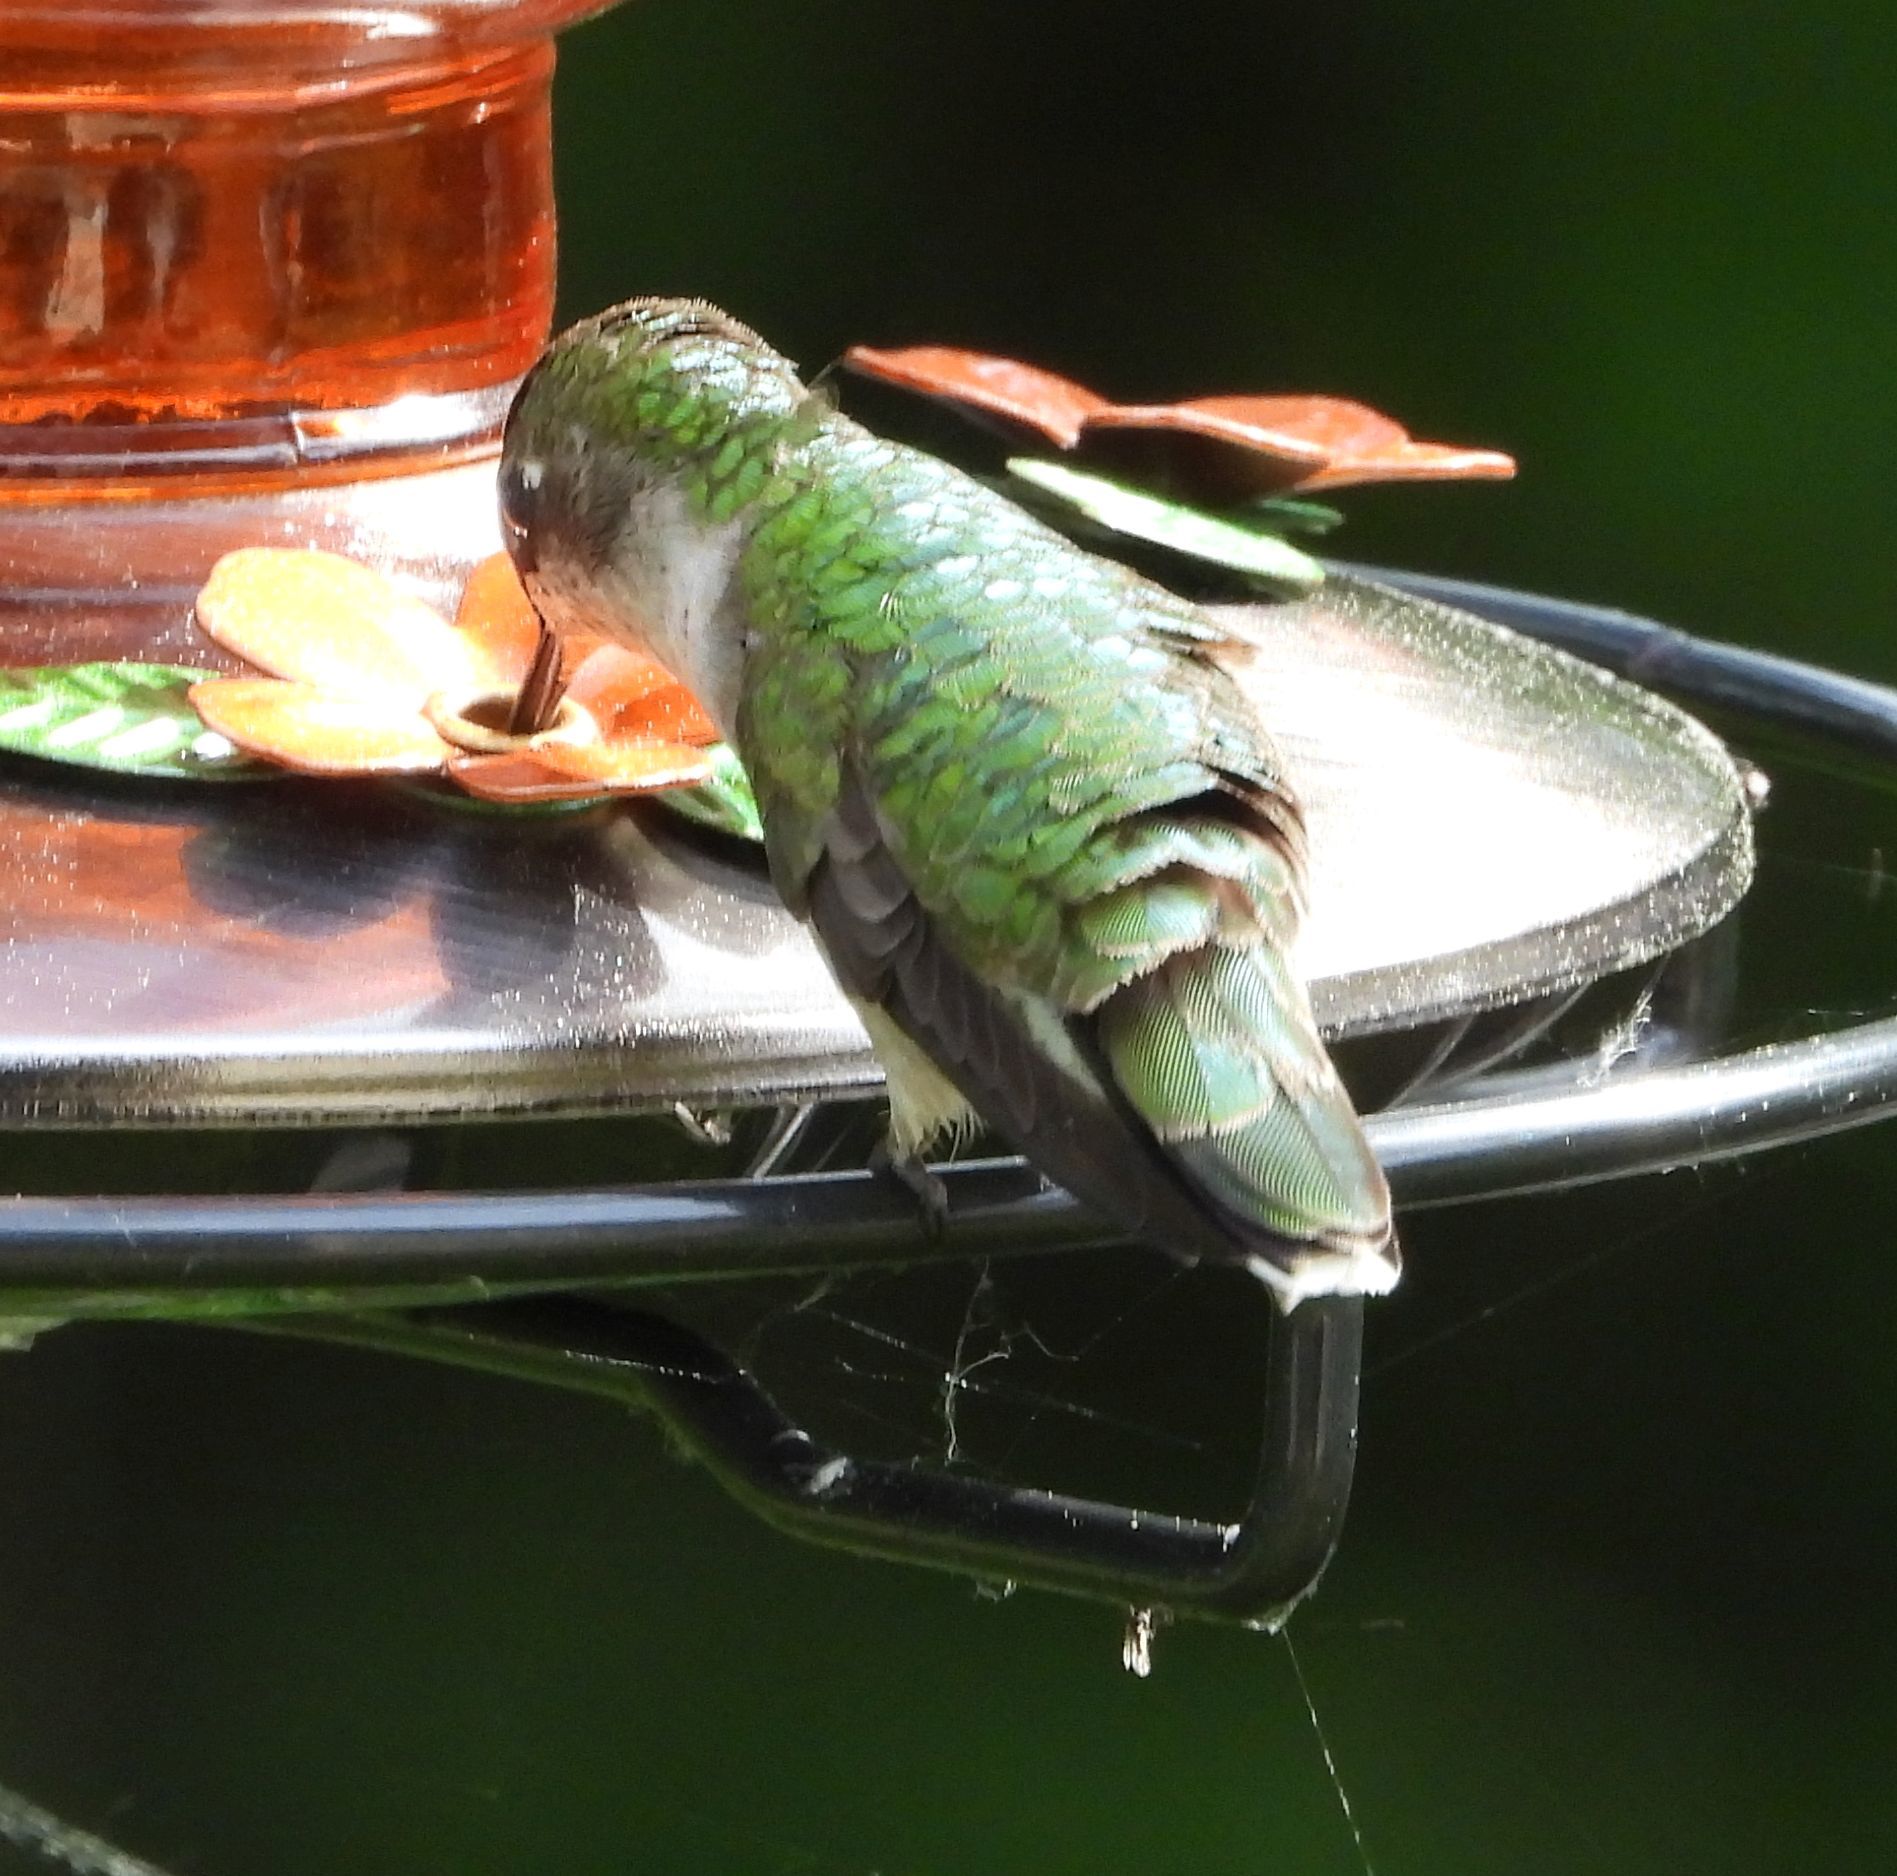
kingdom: Animalia
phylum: Chordata
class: Aves
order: Apodiformes
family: Trochilidae
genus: Archilochus
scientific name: Archilochus colubris
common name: Ruby-throated hummingbird
